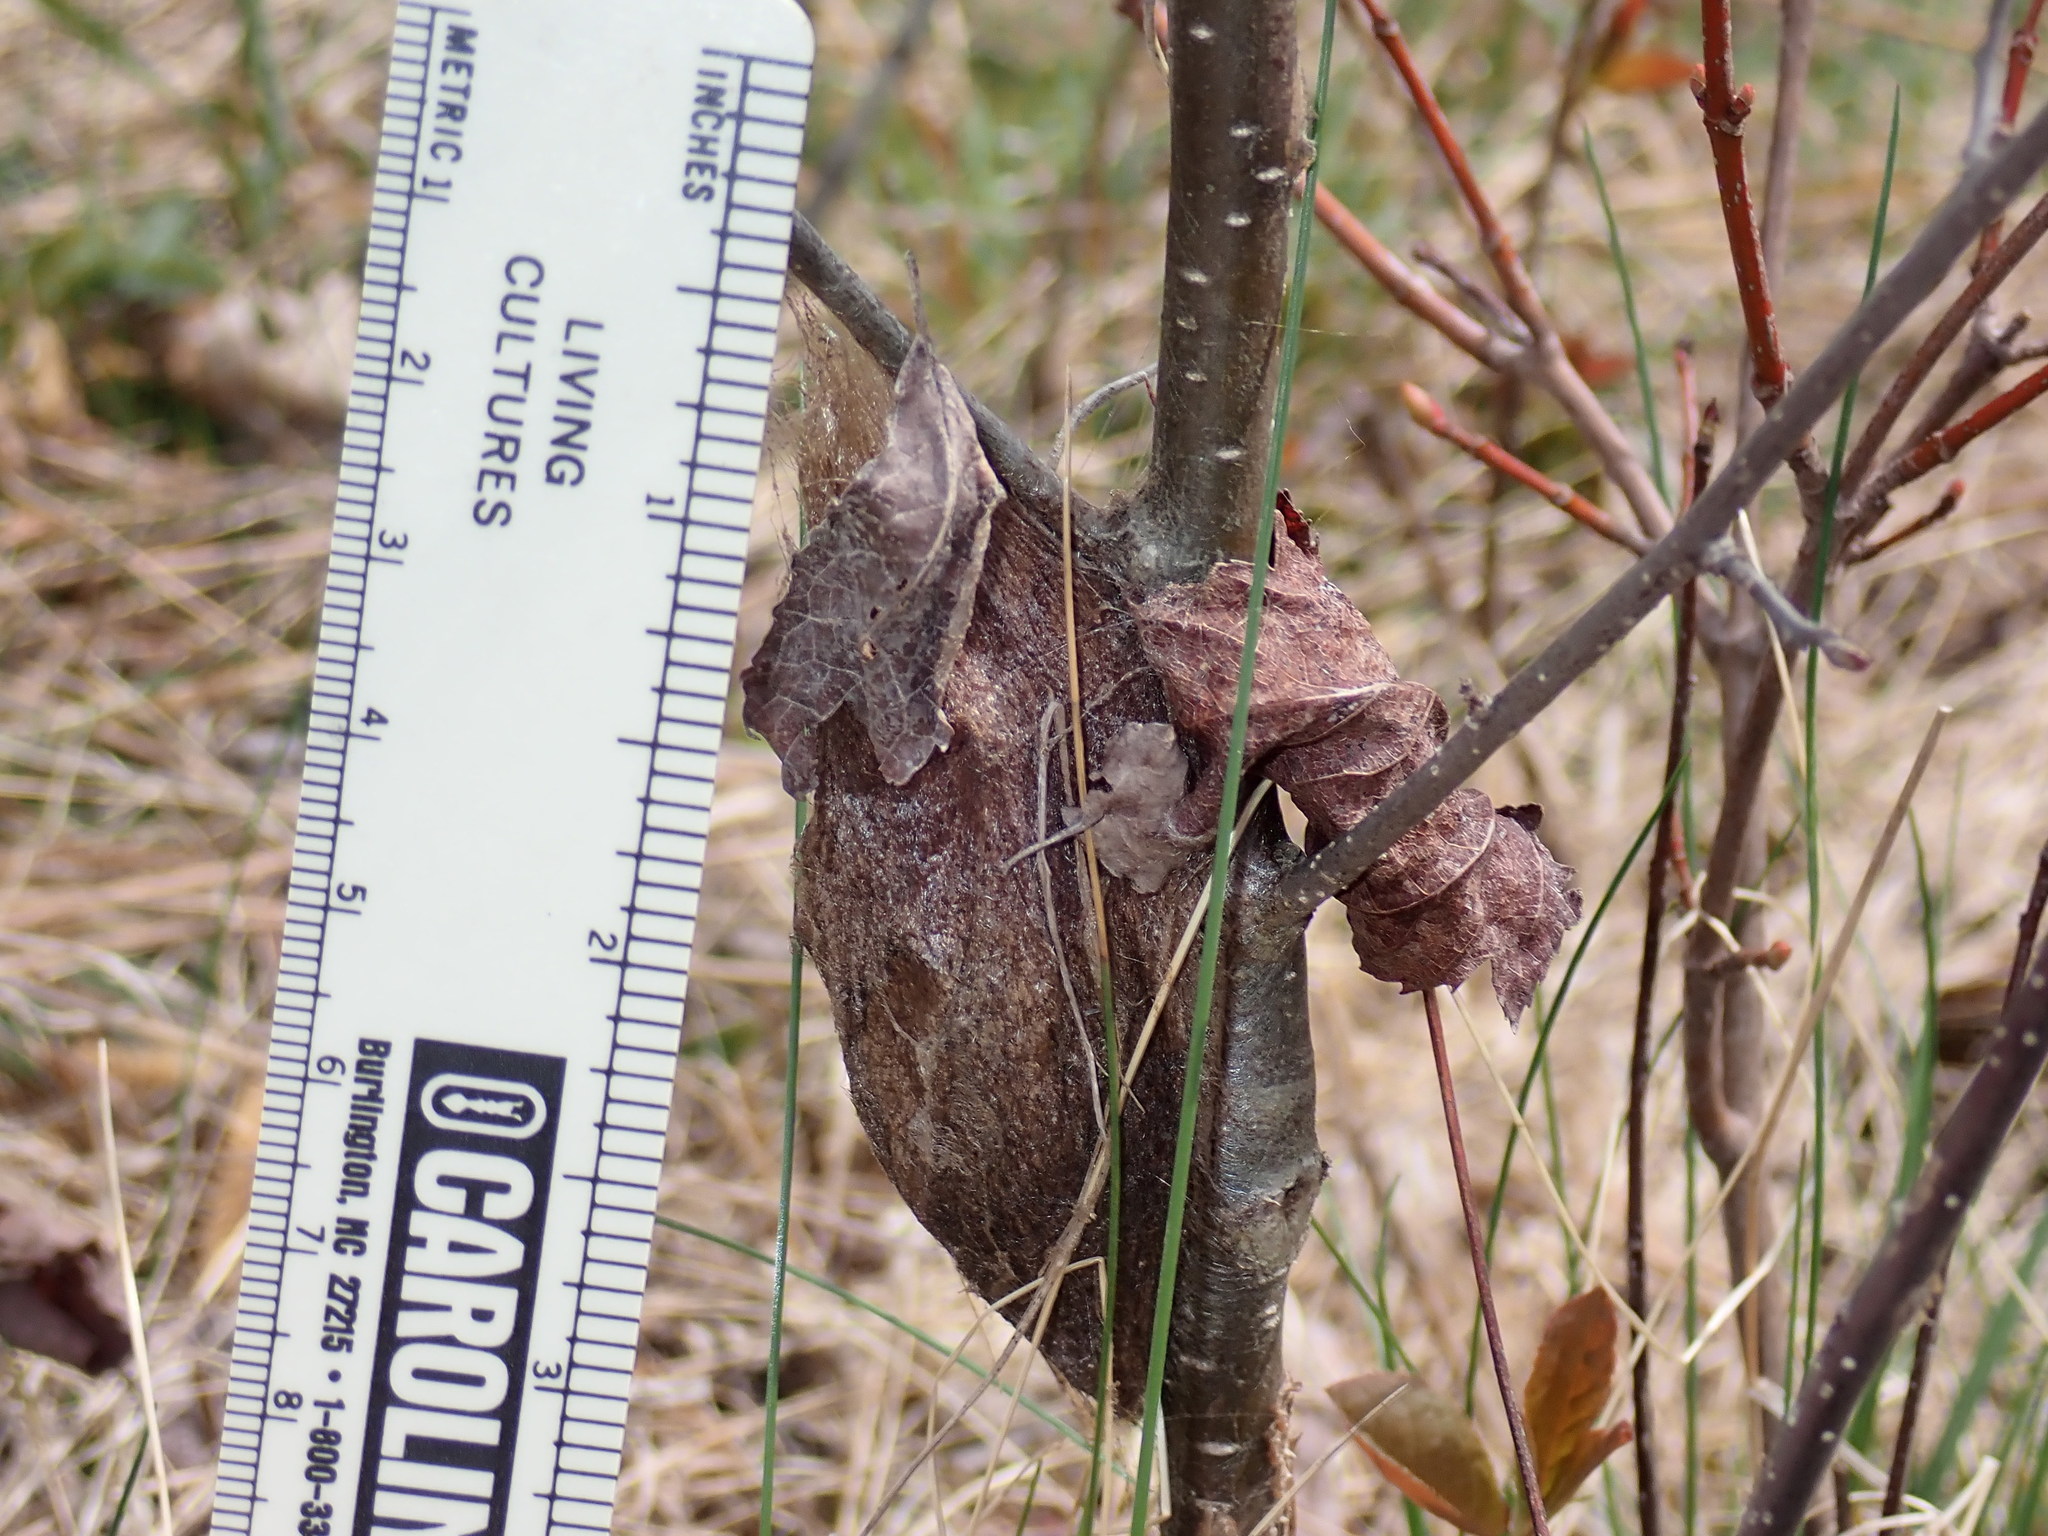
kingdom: Animalia
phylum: Arthropoda
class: Insecta
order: Lepidoptera
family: Saturniidae
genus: Hyalophora
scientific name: Hyalophora cecropia
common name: Cecropia silkmoth
